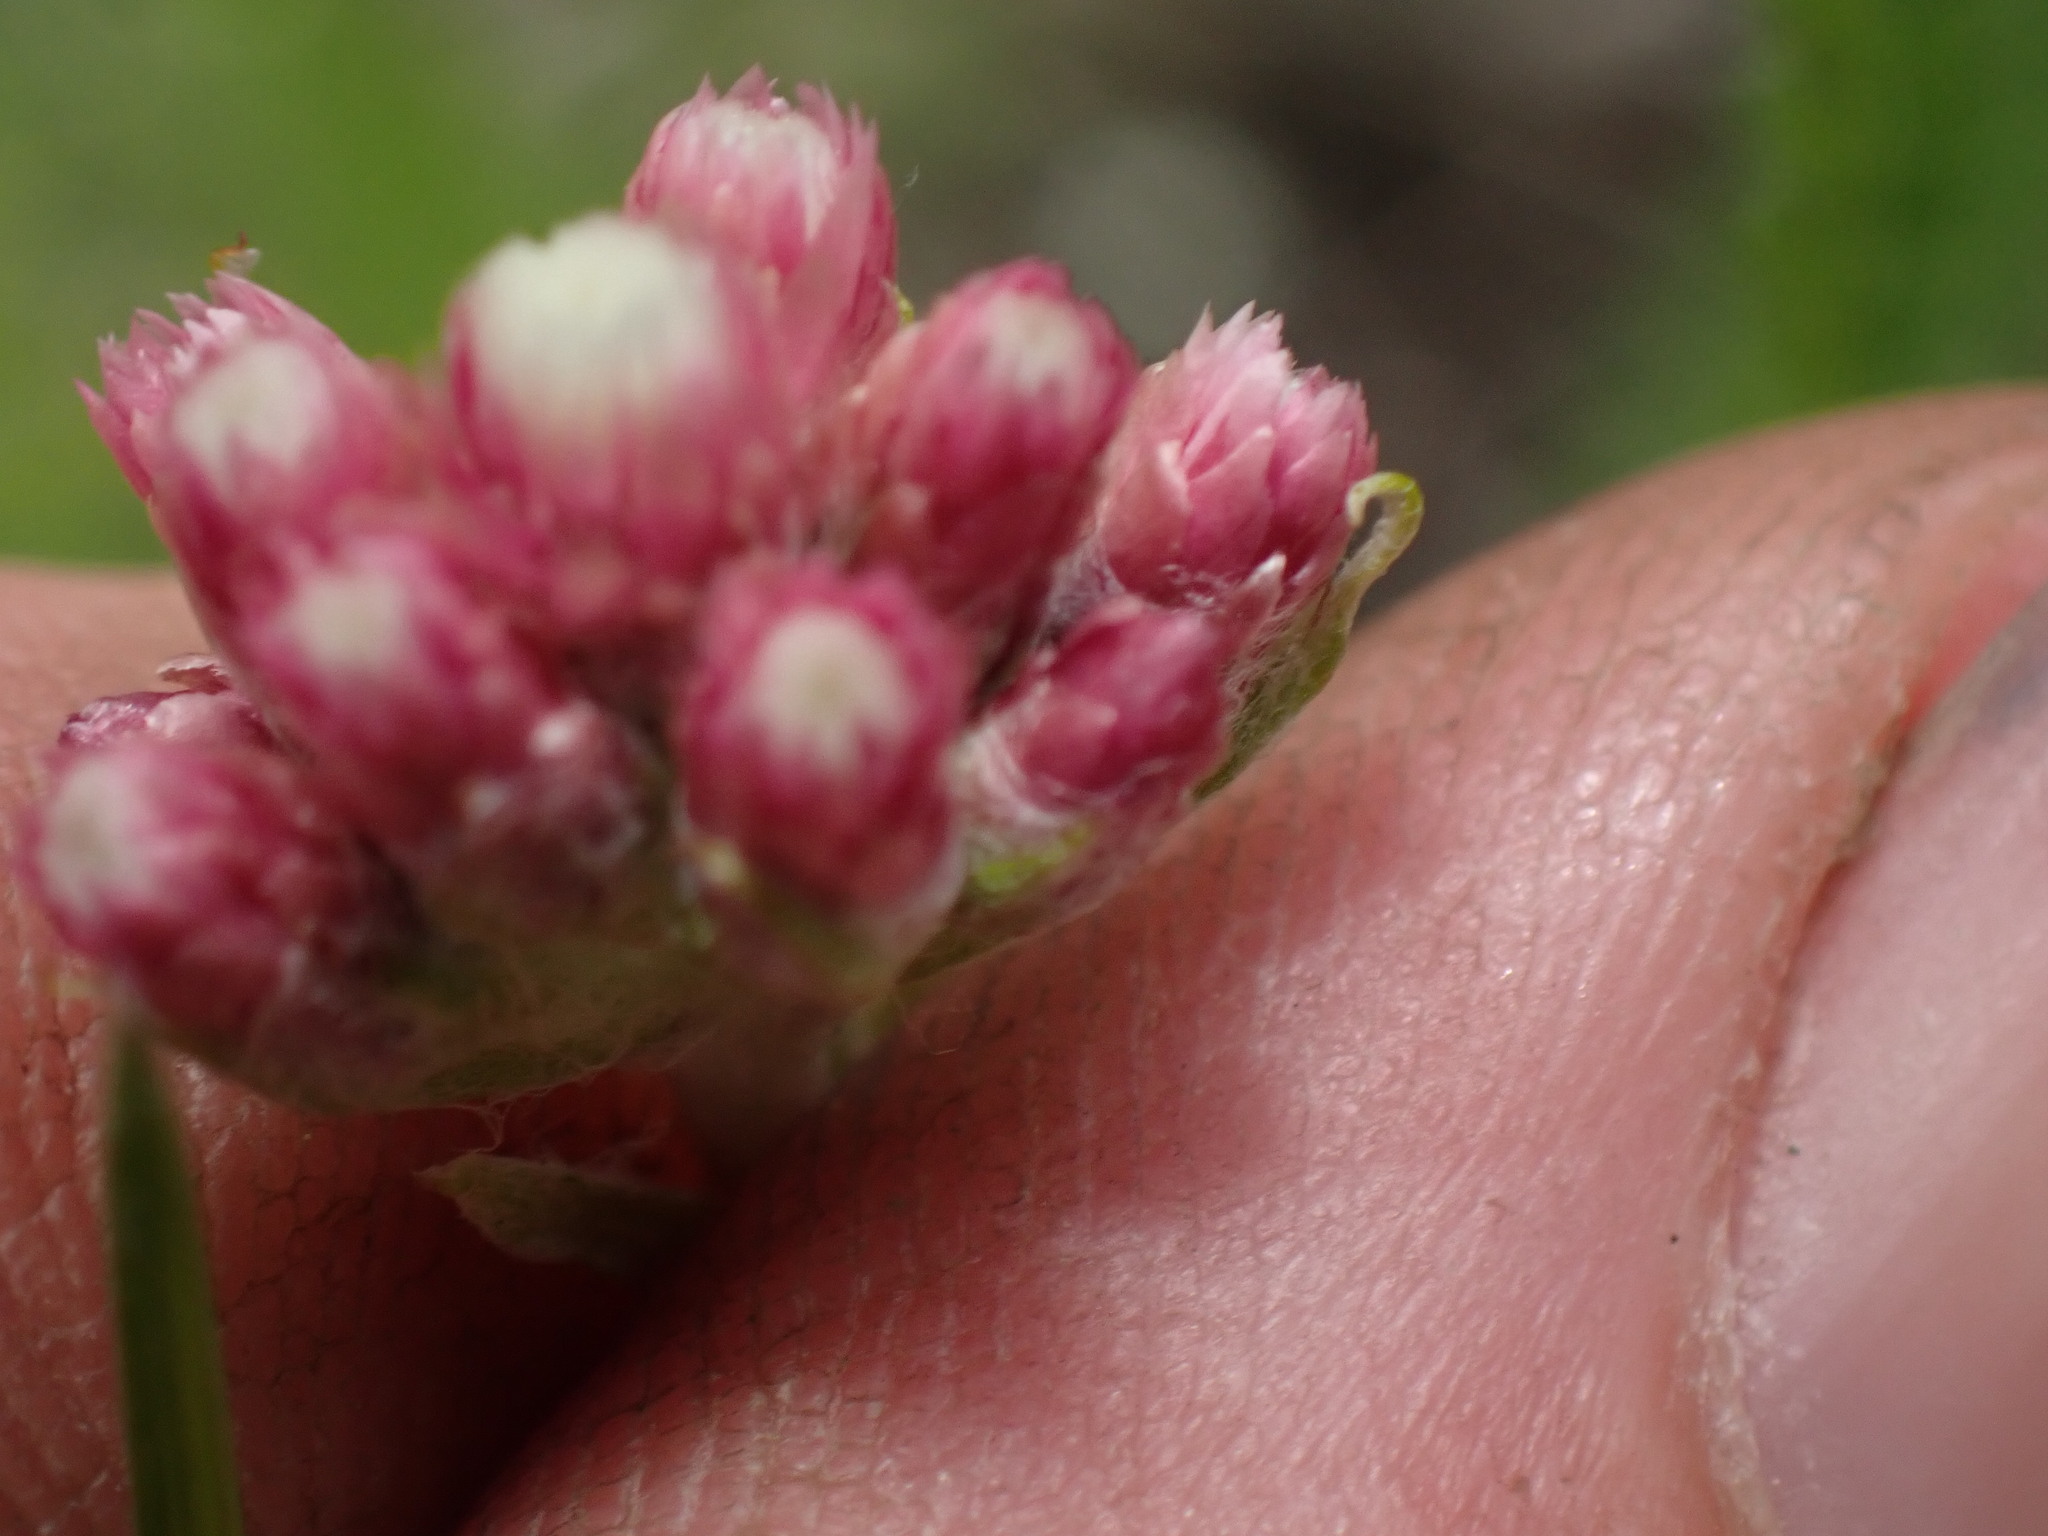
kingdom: Plantae
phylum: Tracheophyta
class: Magnoliopsida
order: Asterales
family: Asteraceae
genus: Antennaria
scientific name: Antennaria rosea
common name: Rosy pussytoes
